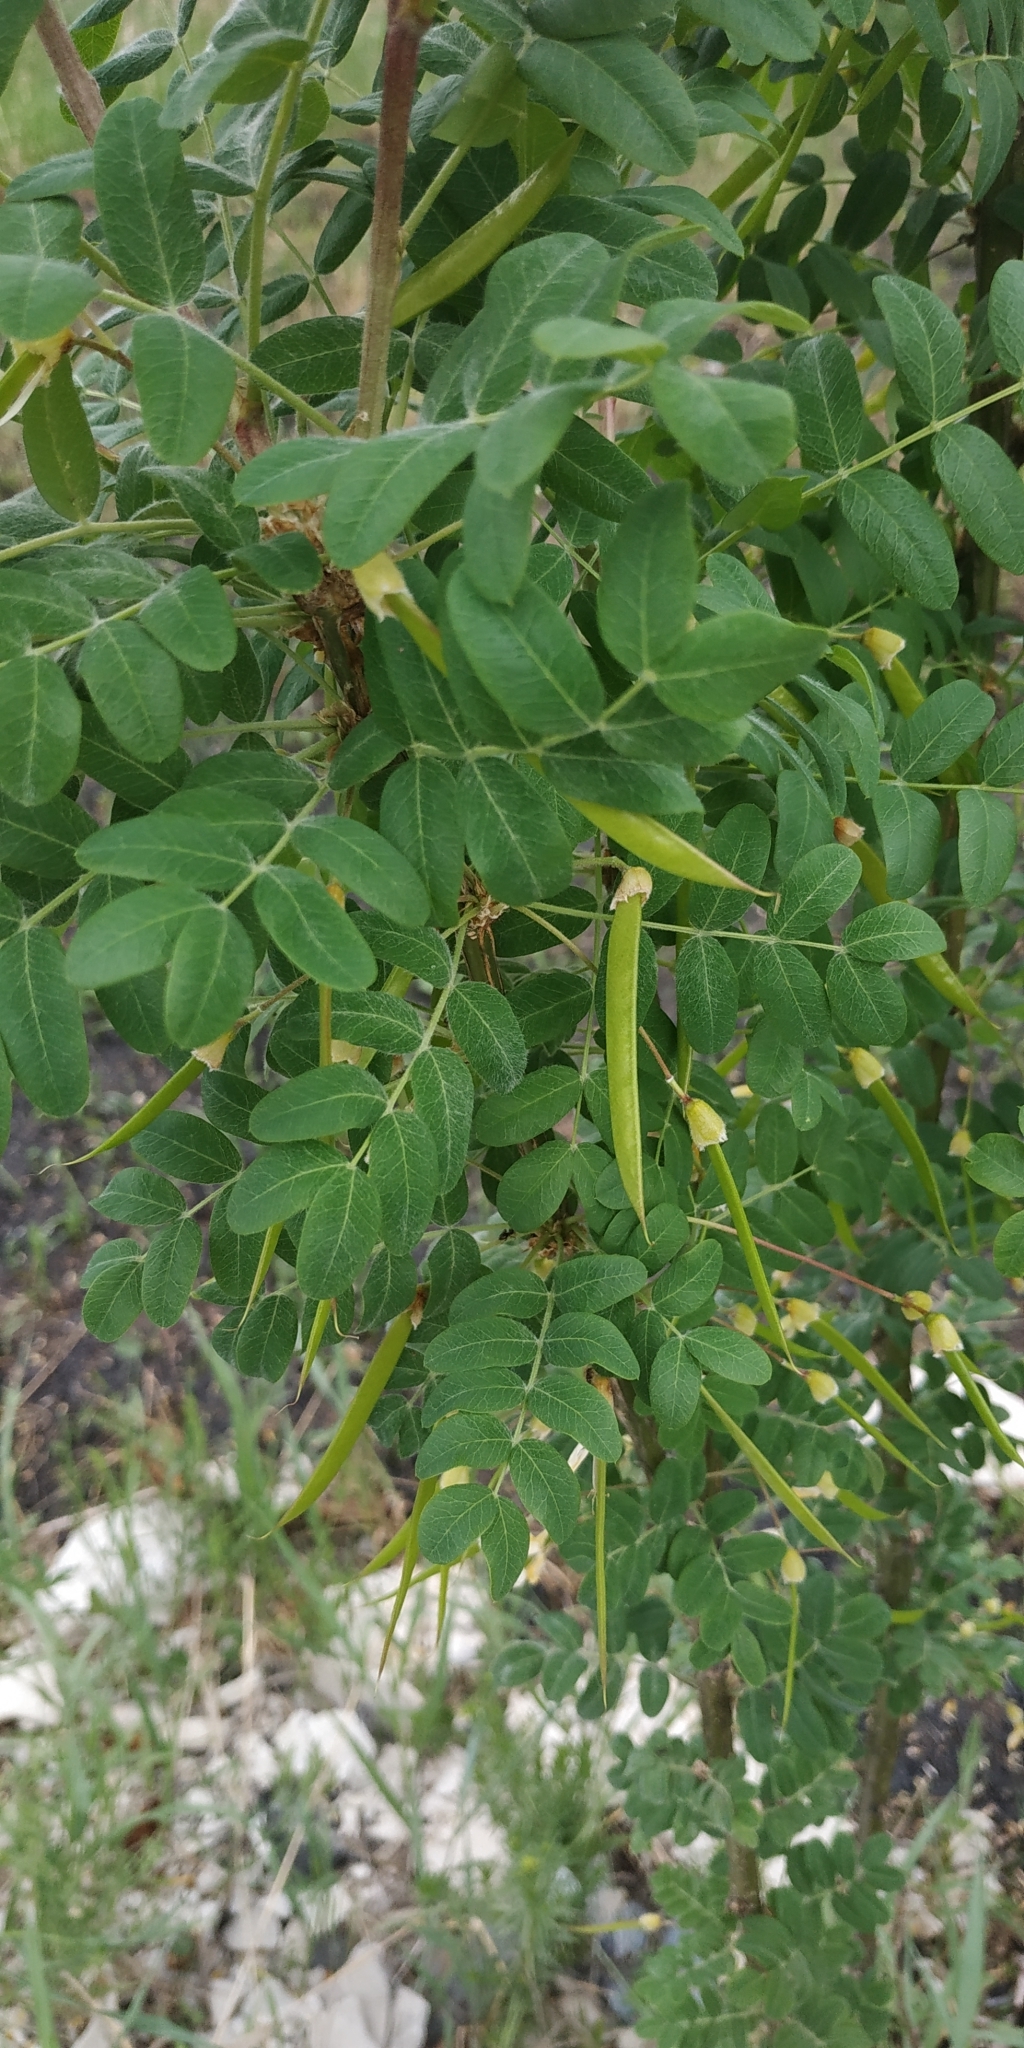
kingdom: Plantae
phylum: Tracheophyta
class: Magnoliopsida
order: Fabales
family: Fabaceae
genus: Caragana
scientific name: Caragana arborescens
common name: Siberian peashrub
